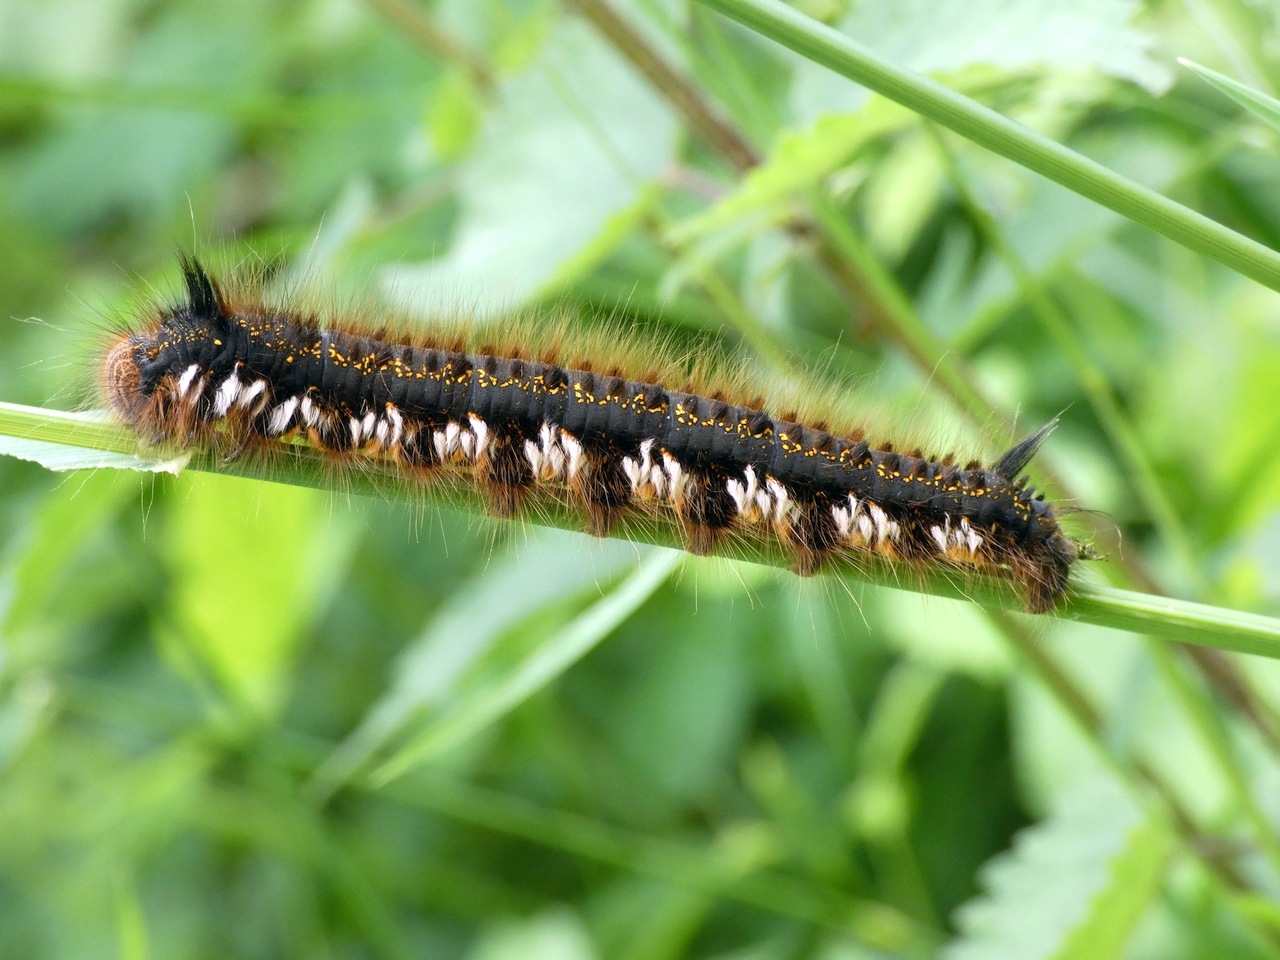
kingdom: Animalia
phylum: Arthropoda
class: Insecta
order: Lepidoptera
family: Lasiocampidae
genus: Euthrix
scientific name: Euthrix potatoria
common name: Drinker
